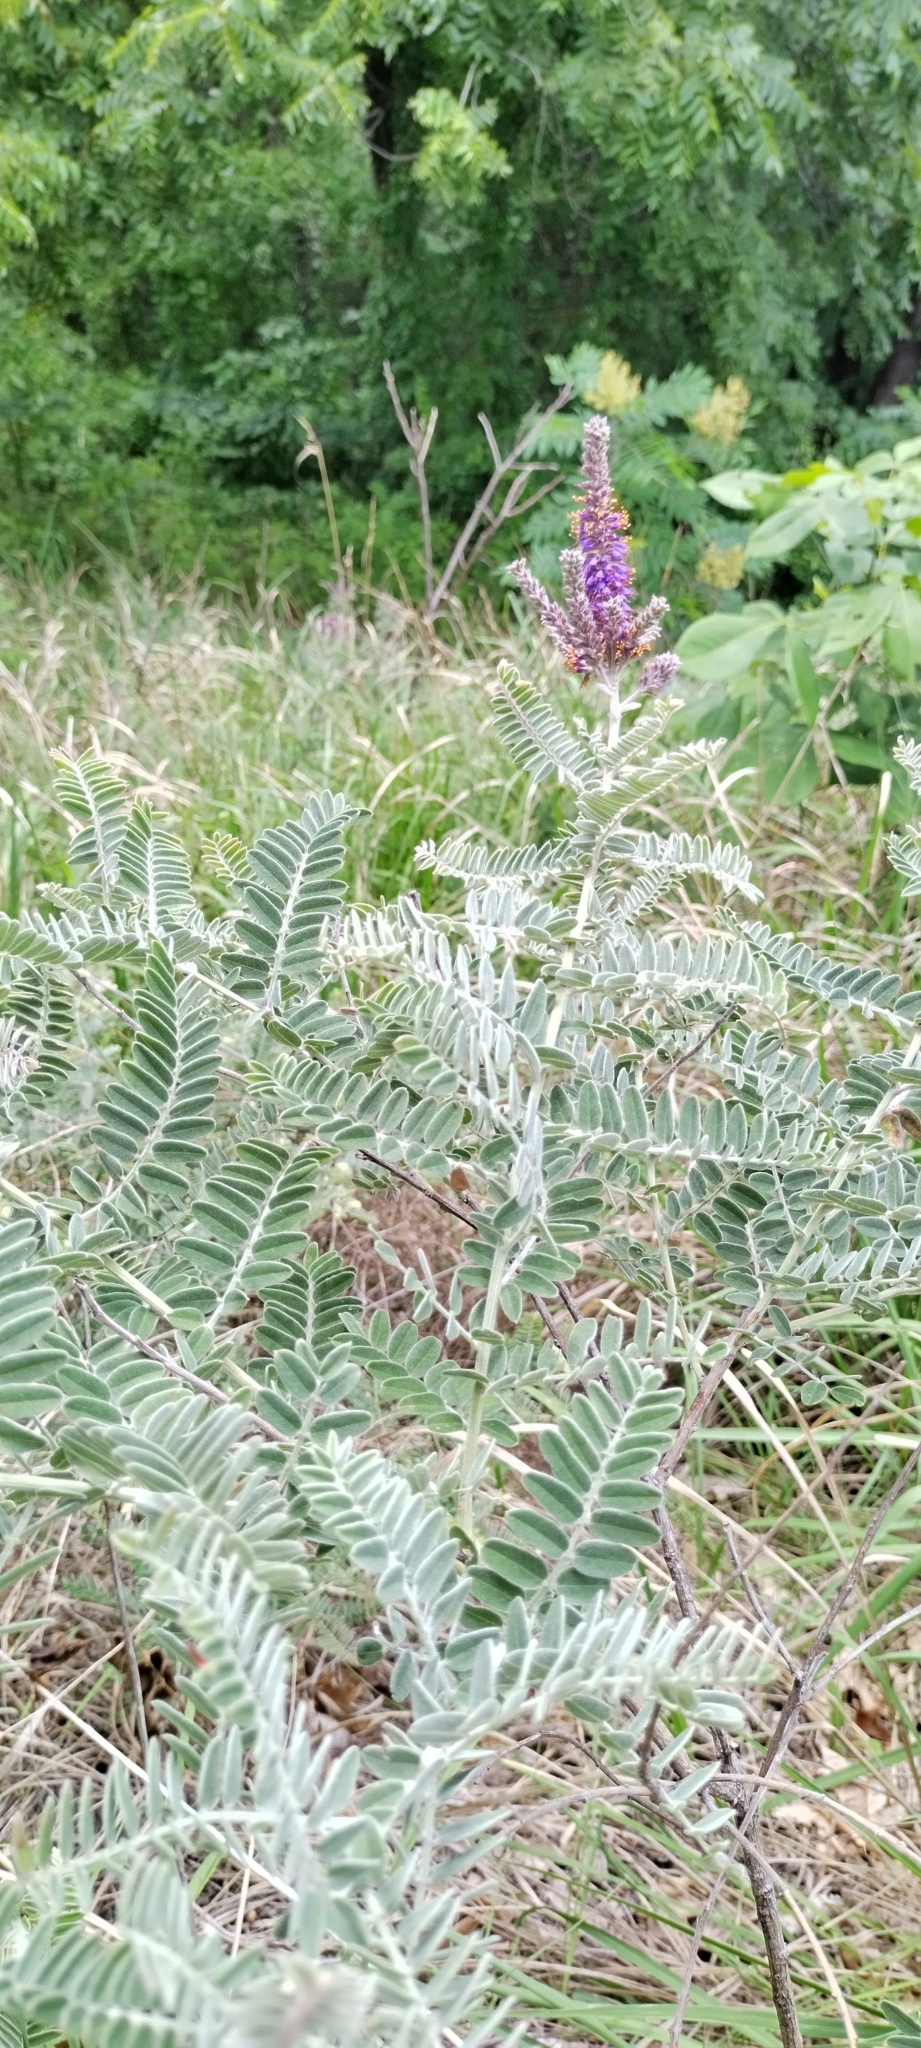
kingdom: Plantae
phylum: Tracheophyta
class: Magnoliopsida
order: Fabales
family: Fabaceae
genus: Amorpha
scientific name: Amorpha canescens
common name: Leadplant
